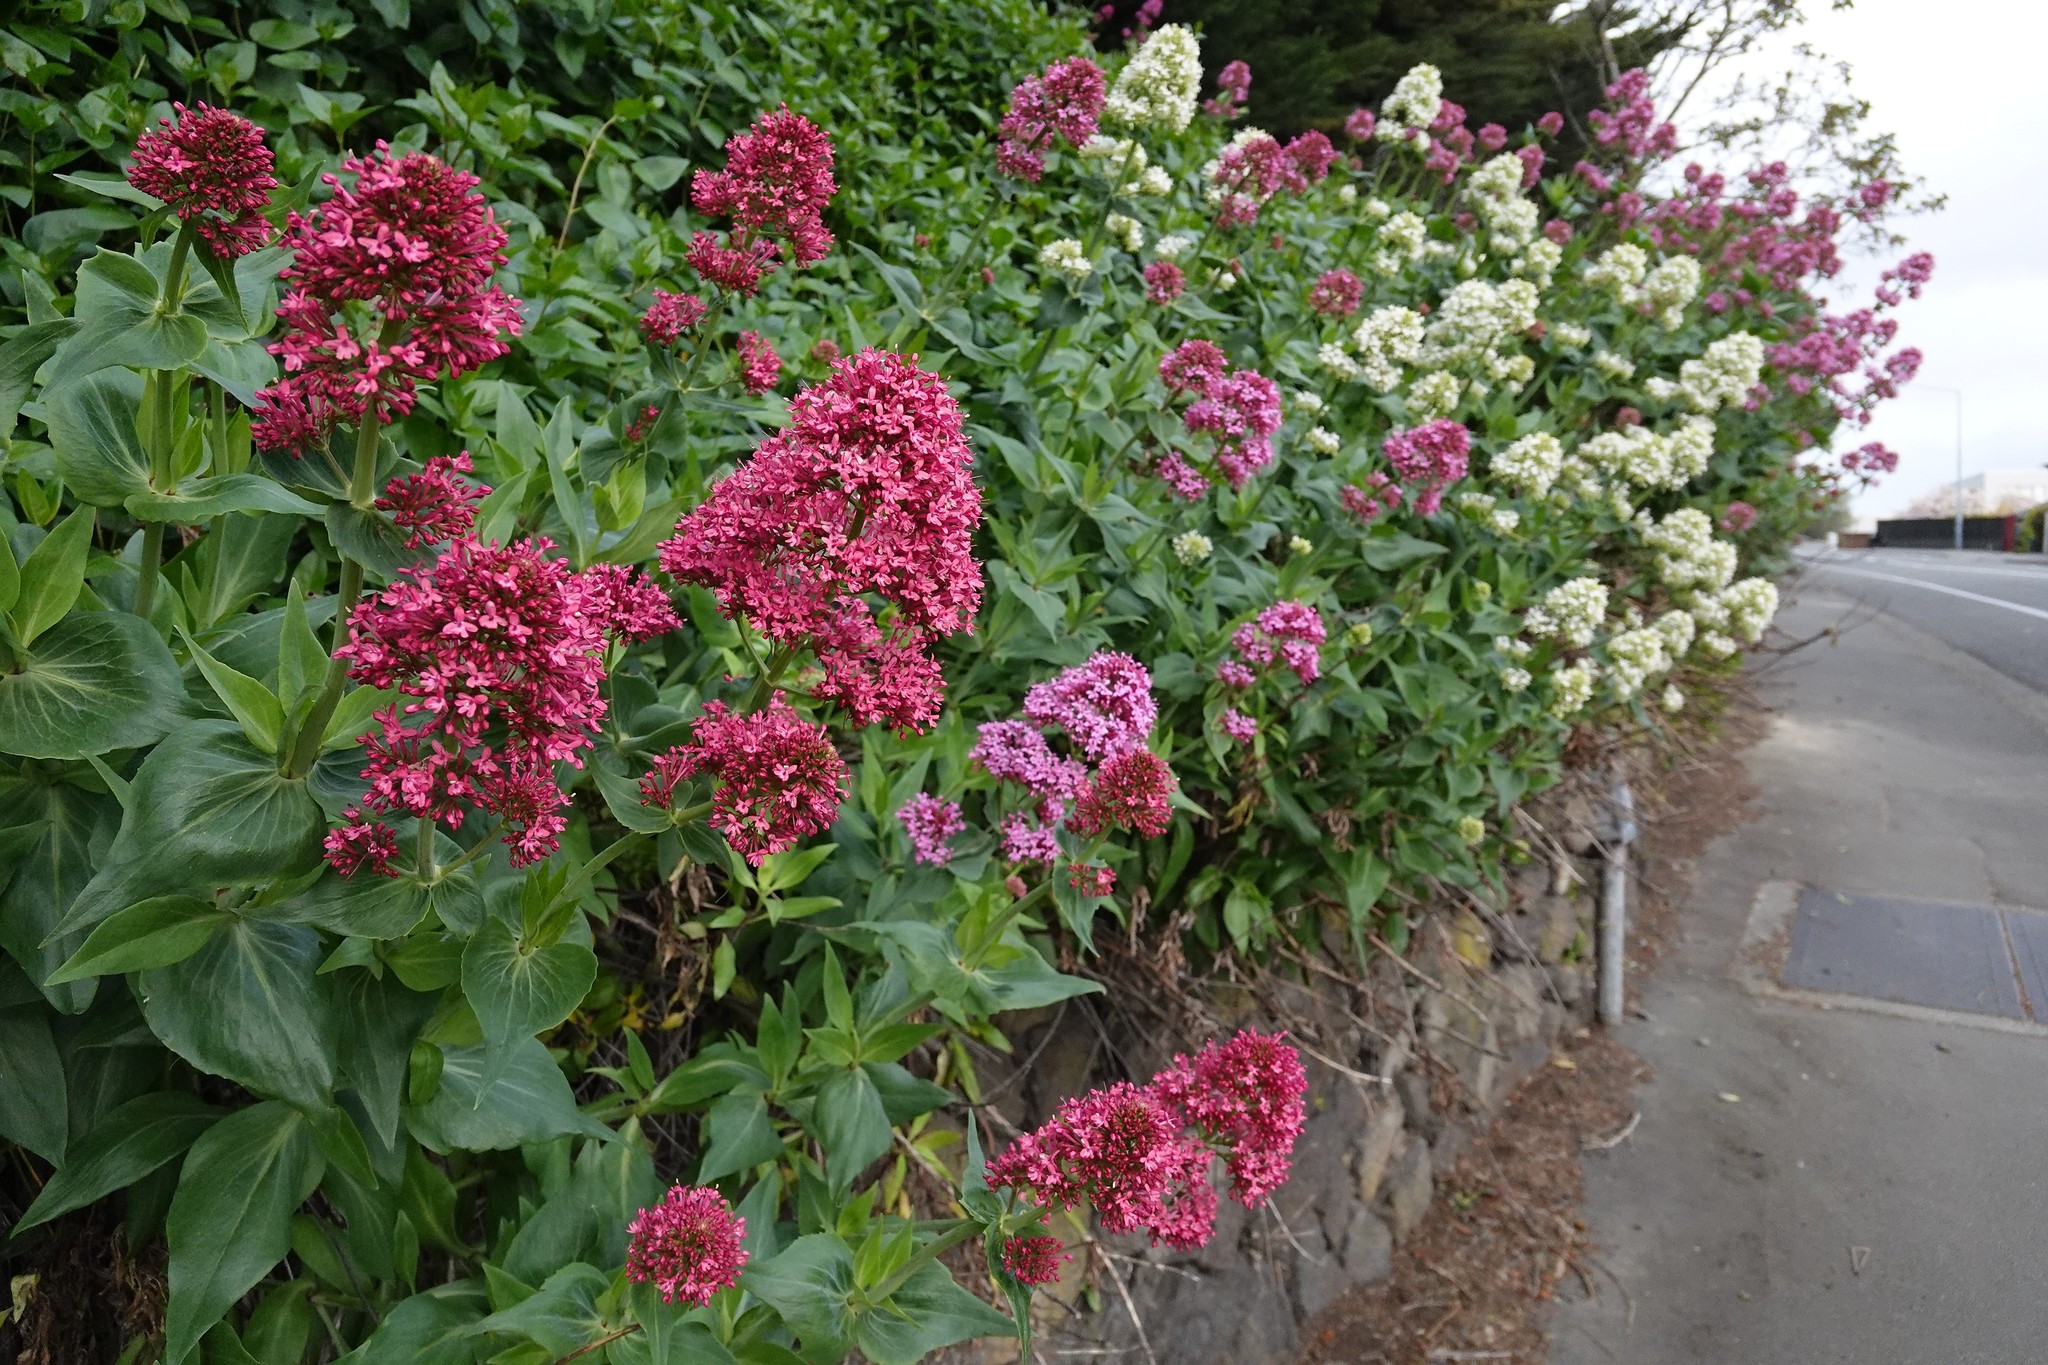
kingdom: Plantae
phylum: Tracheophyta
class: Magnoliopsida
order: Dipsacales
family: Caprifoliaceae
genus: Centranthus
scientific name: Centranthus ruber
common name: Red valerian
